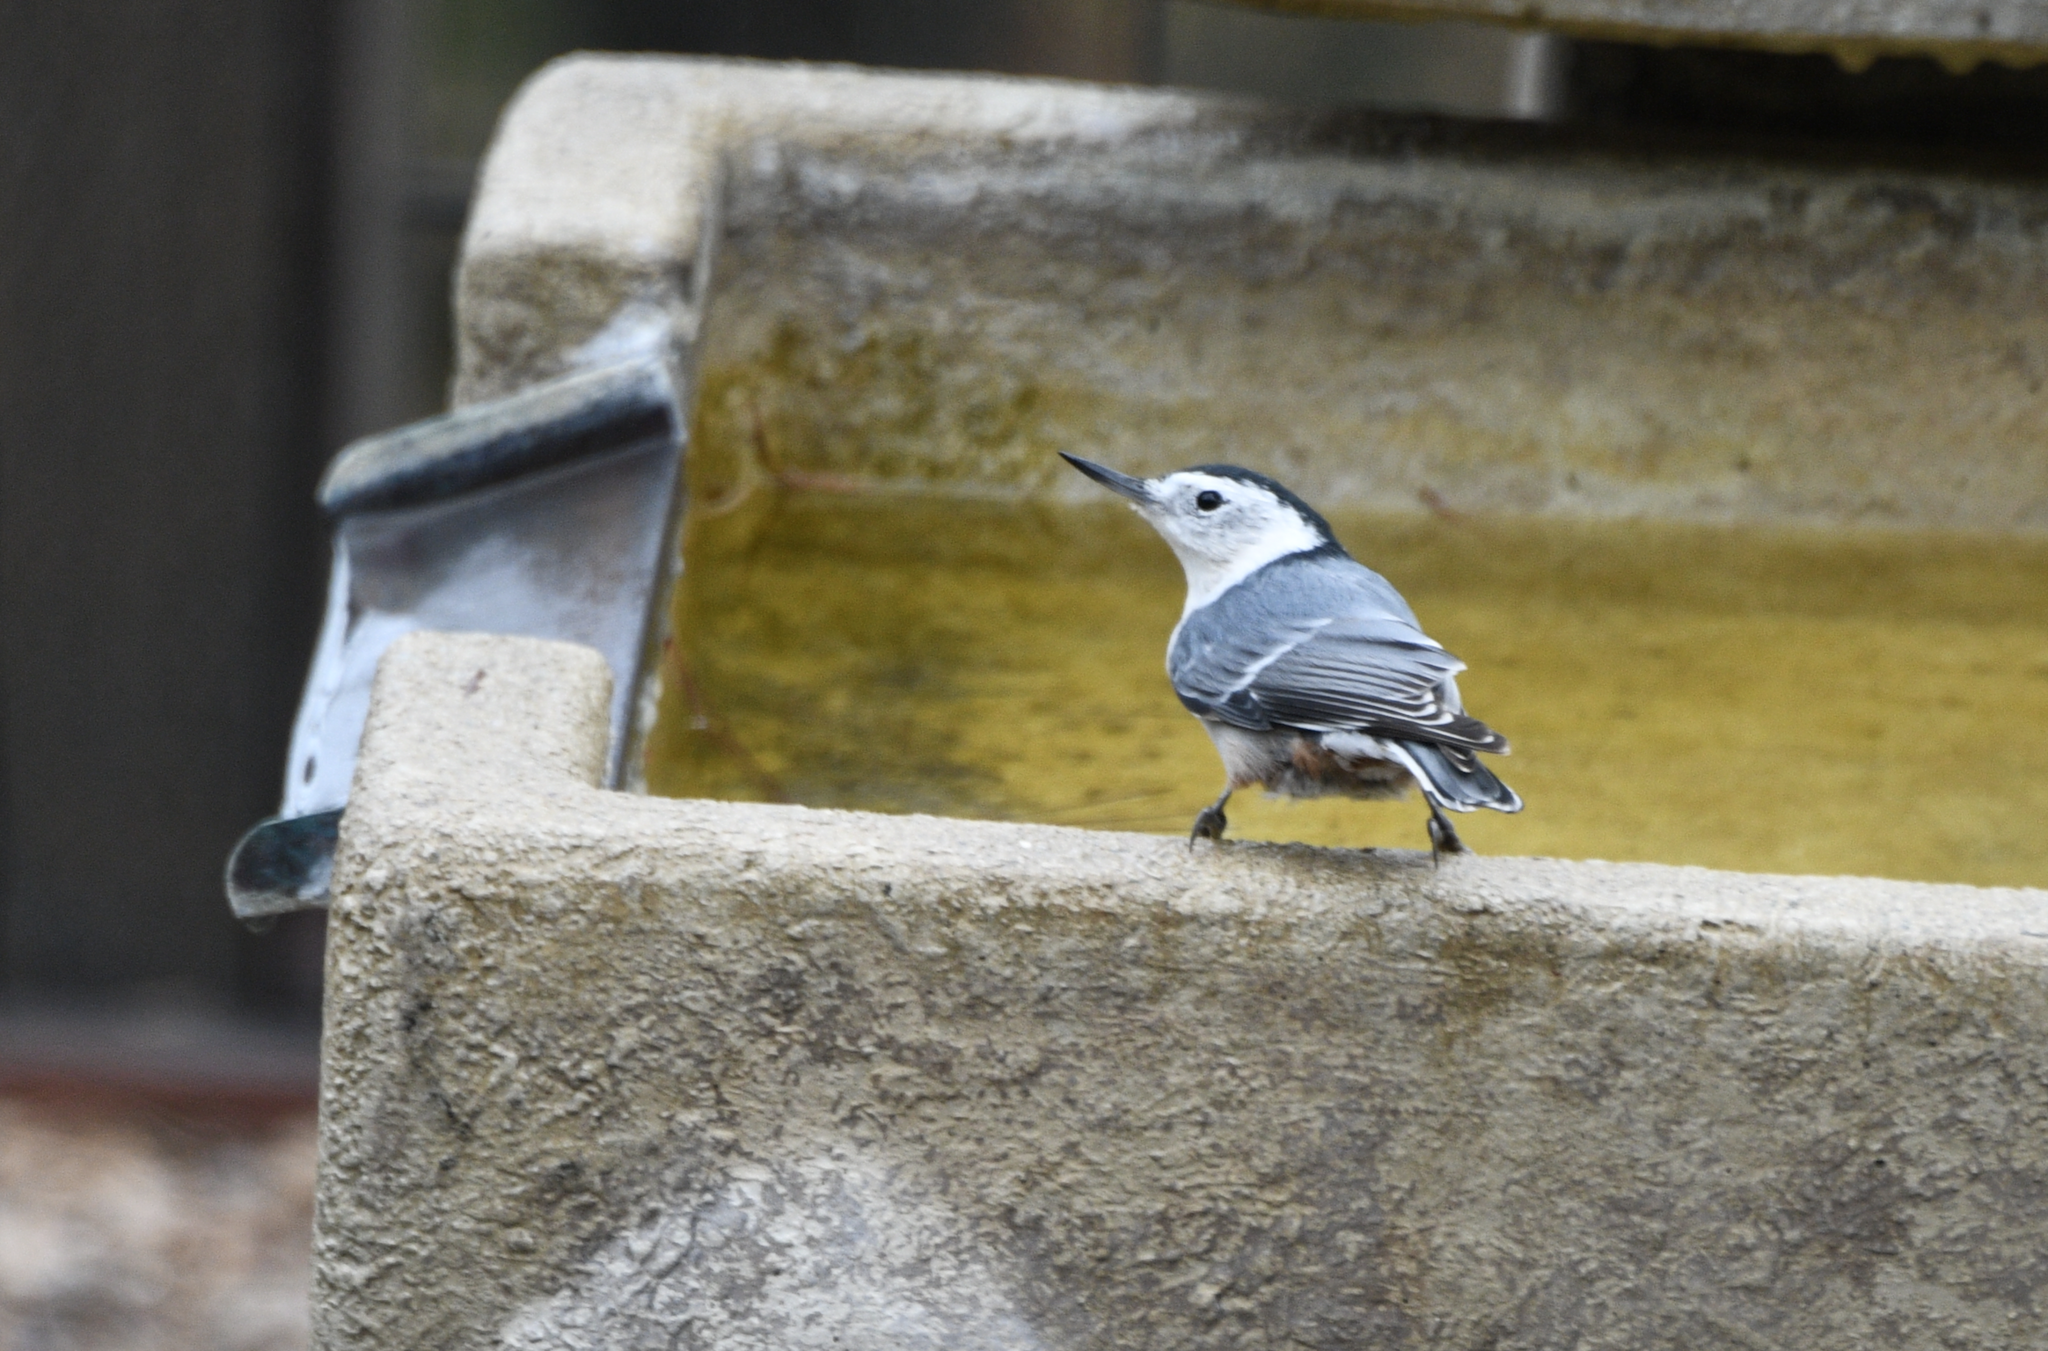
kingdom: Animalia
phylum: Chordata
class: Aves
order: Passeriformes
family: Sittidae
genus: Sitta
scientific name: Sitta carolinensis
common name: White-breasted nuthatch
